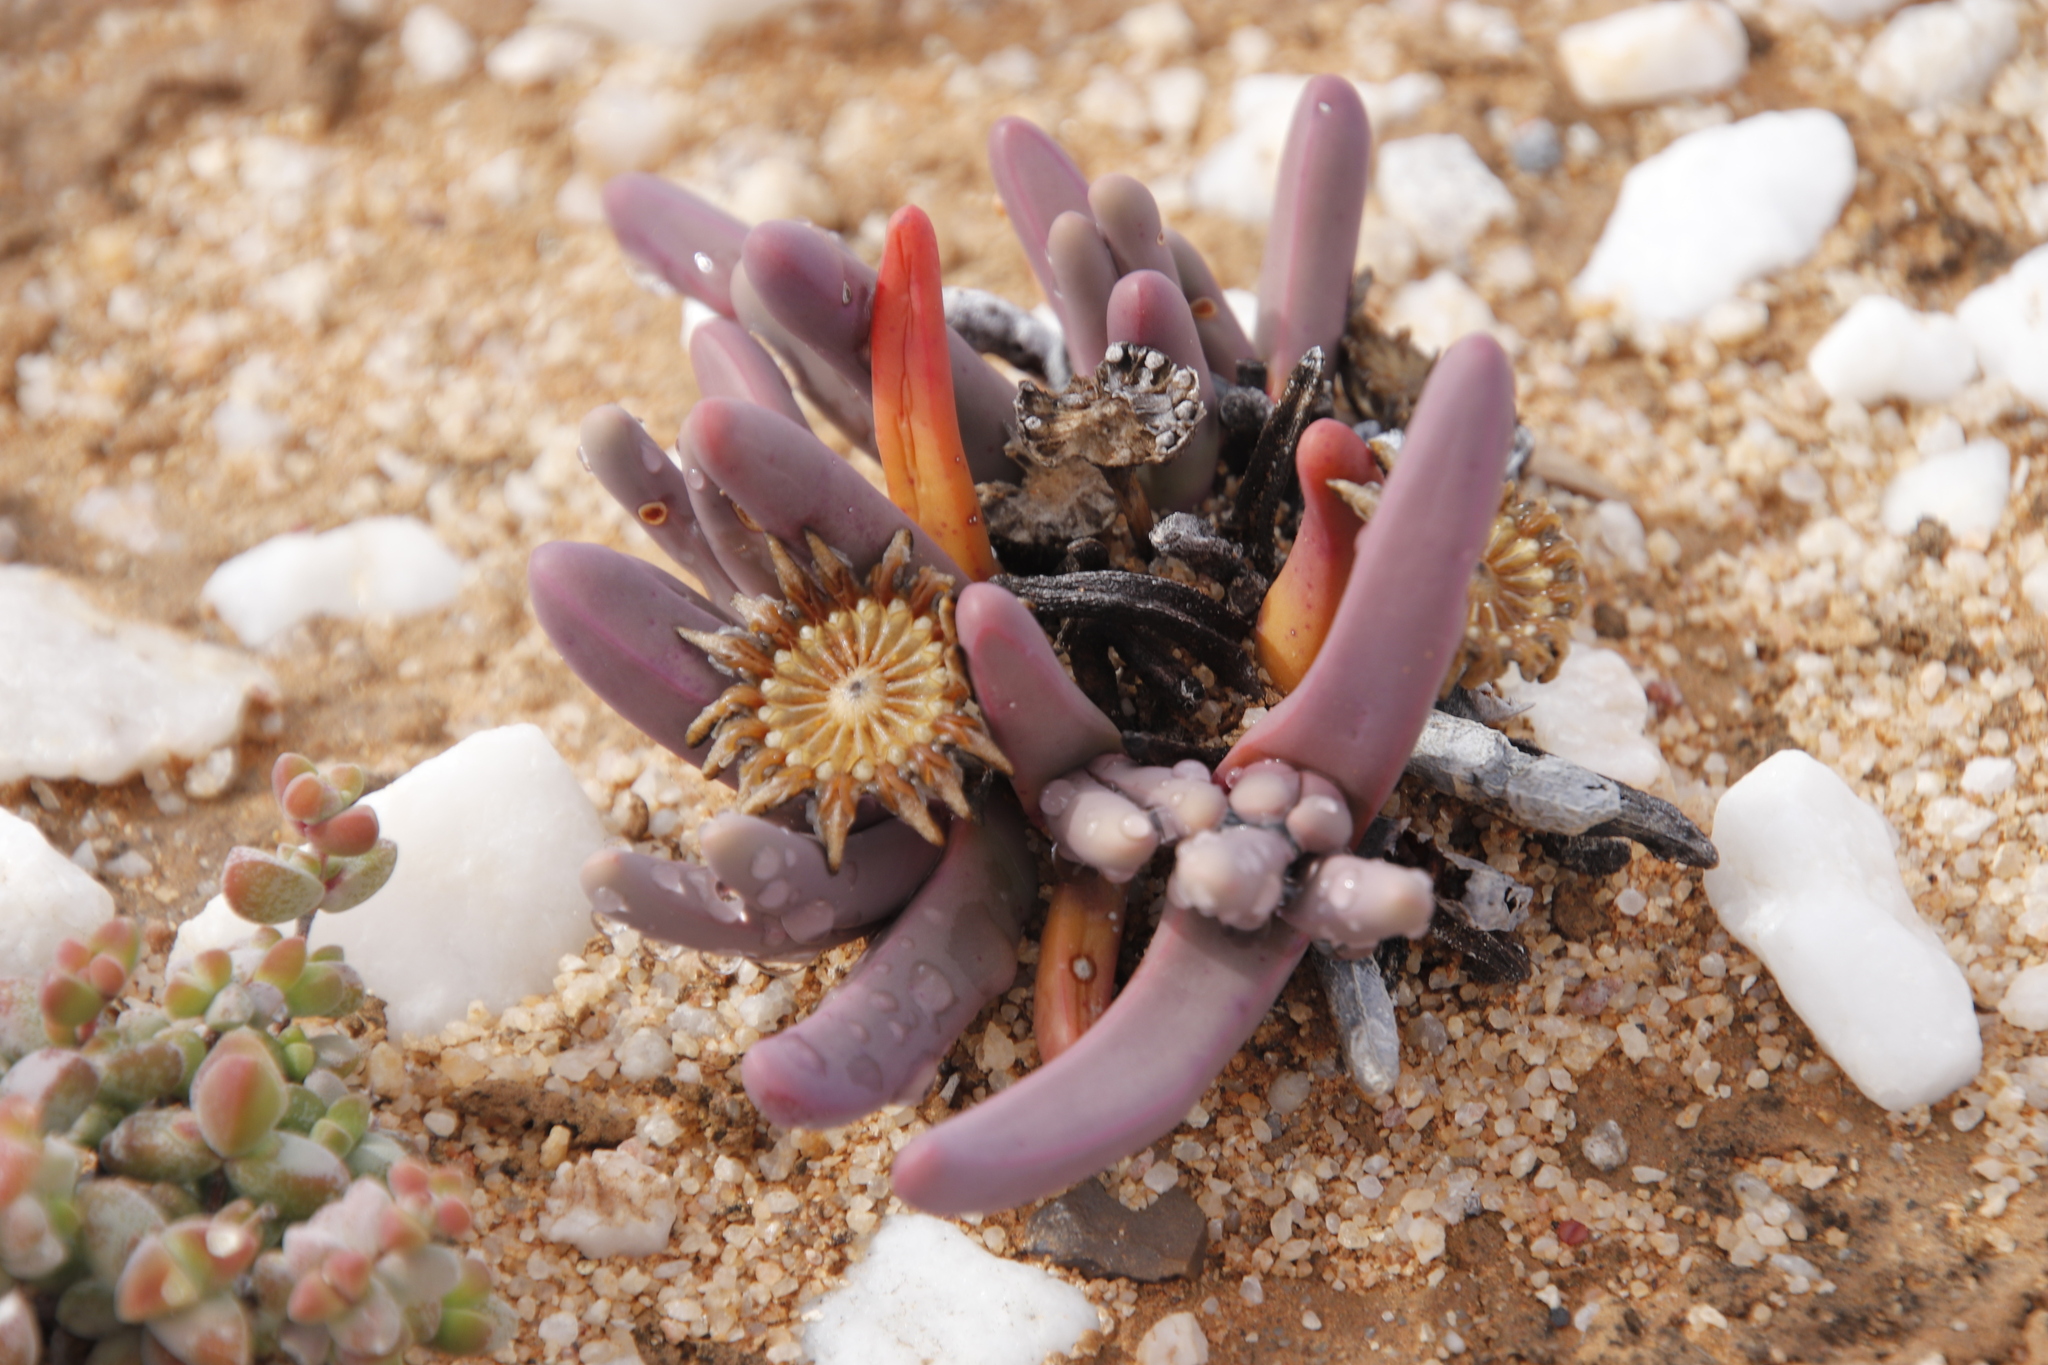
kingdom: Plantae
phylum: Tracheophyta
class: Magnoliopsida
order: Caryophyllales
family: Aizoaceae
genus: Argyroderma
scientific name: Argyroderma fissum
